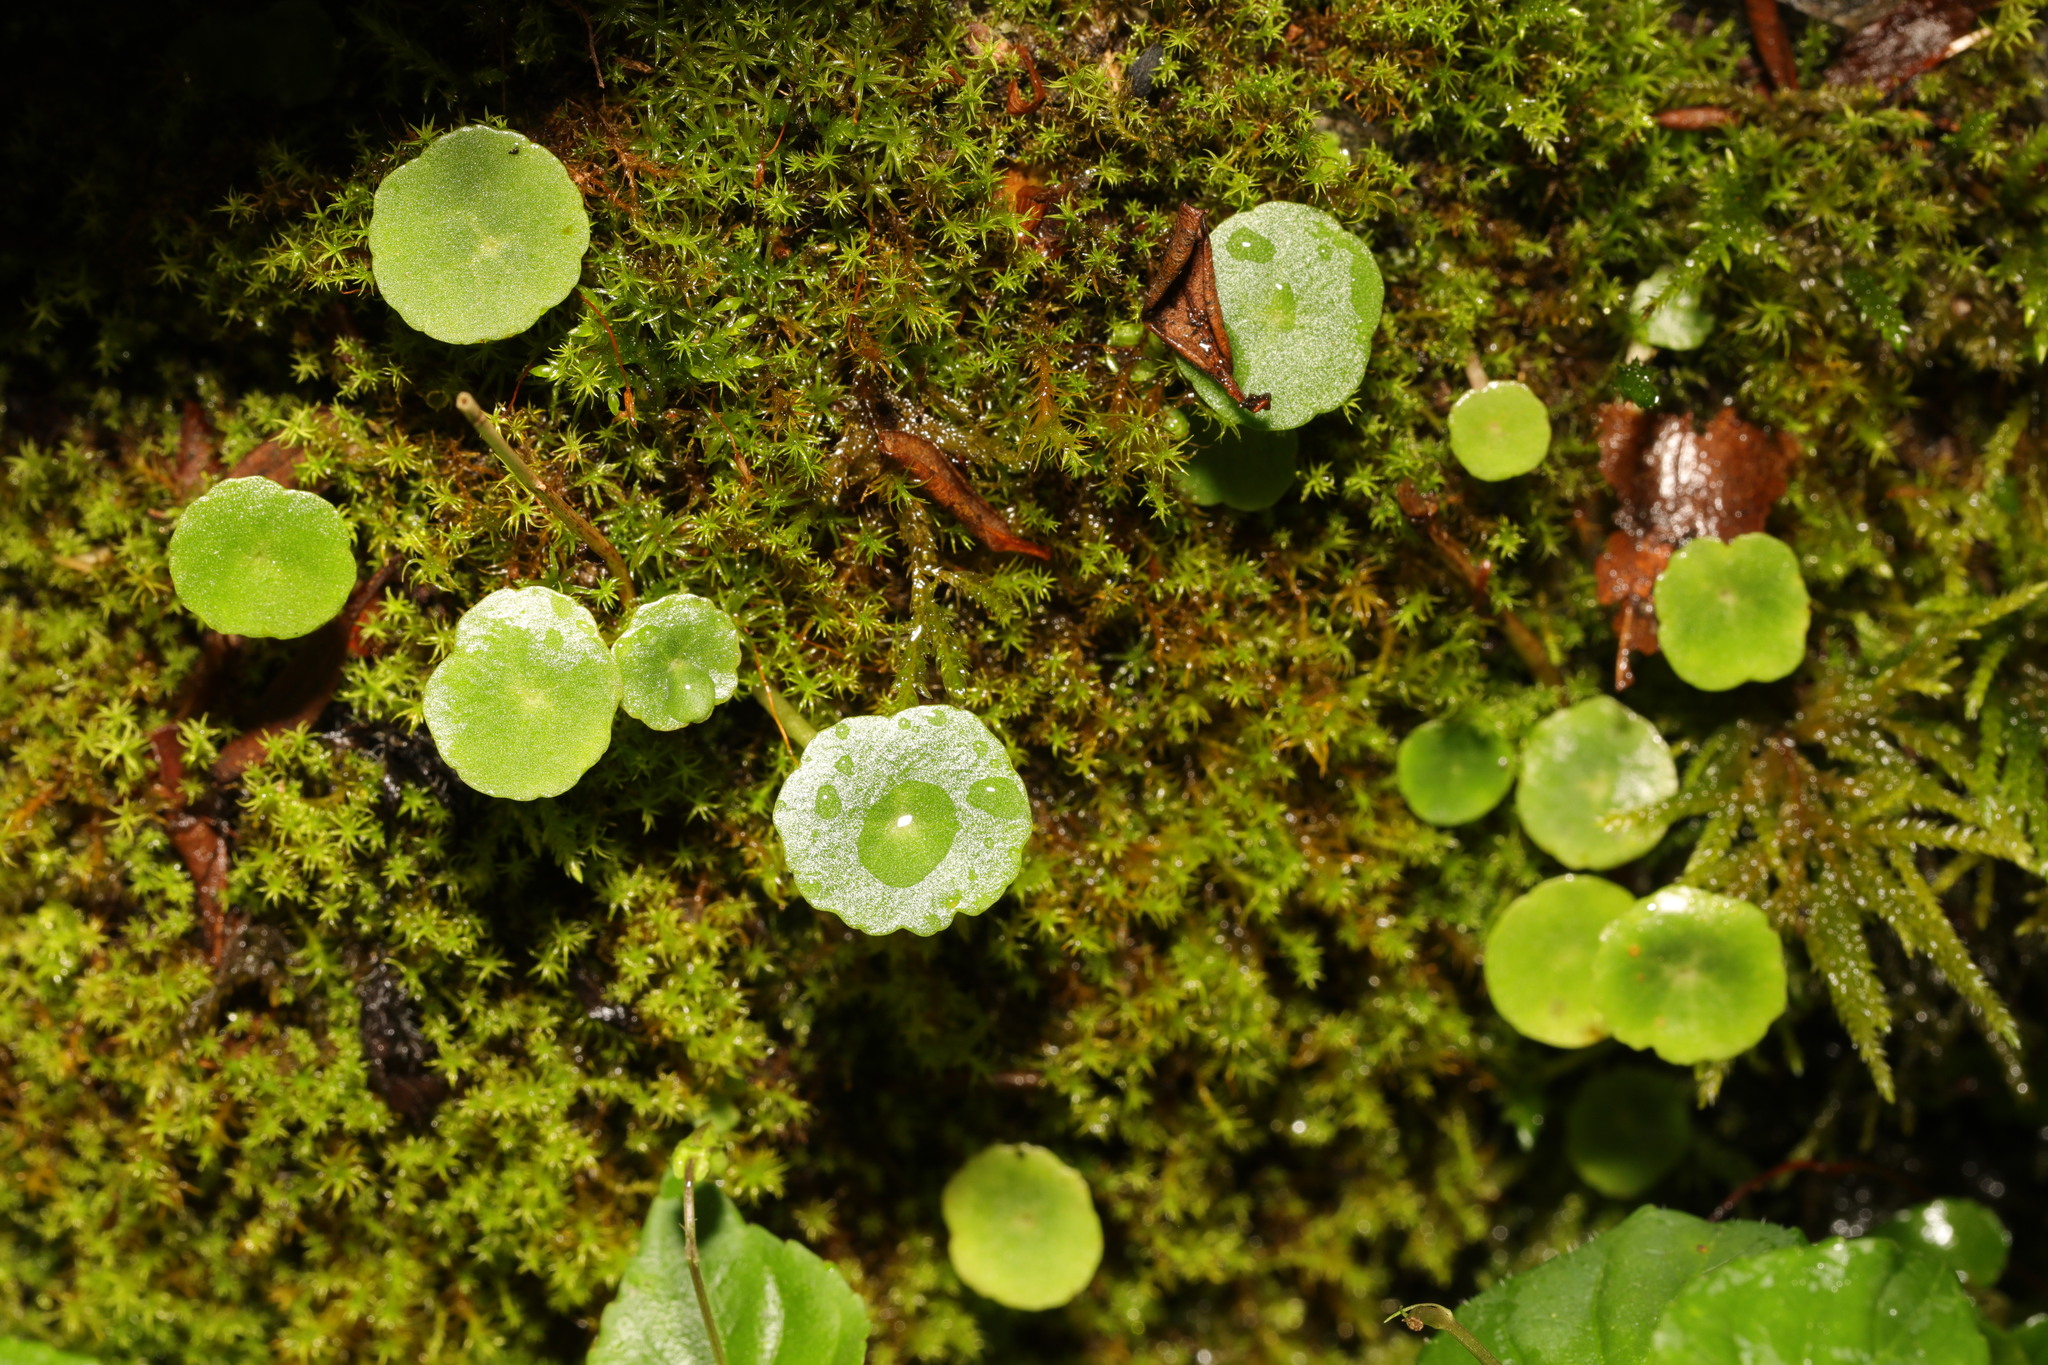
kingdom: Plantae
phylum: Tracheophyta
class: Magnoliopsida
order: Saxifragales
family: Crassulaceae
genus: Umbilicus
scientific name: Umbilicus rupestris
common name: Navelwort
